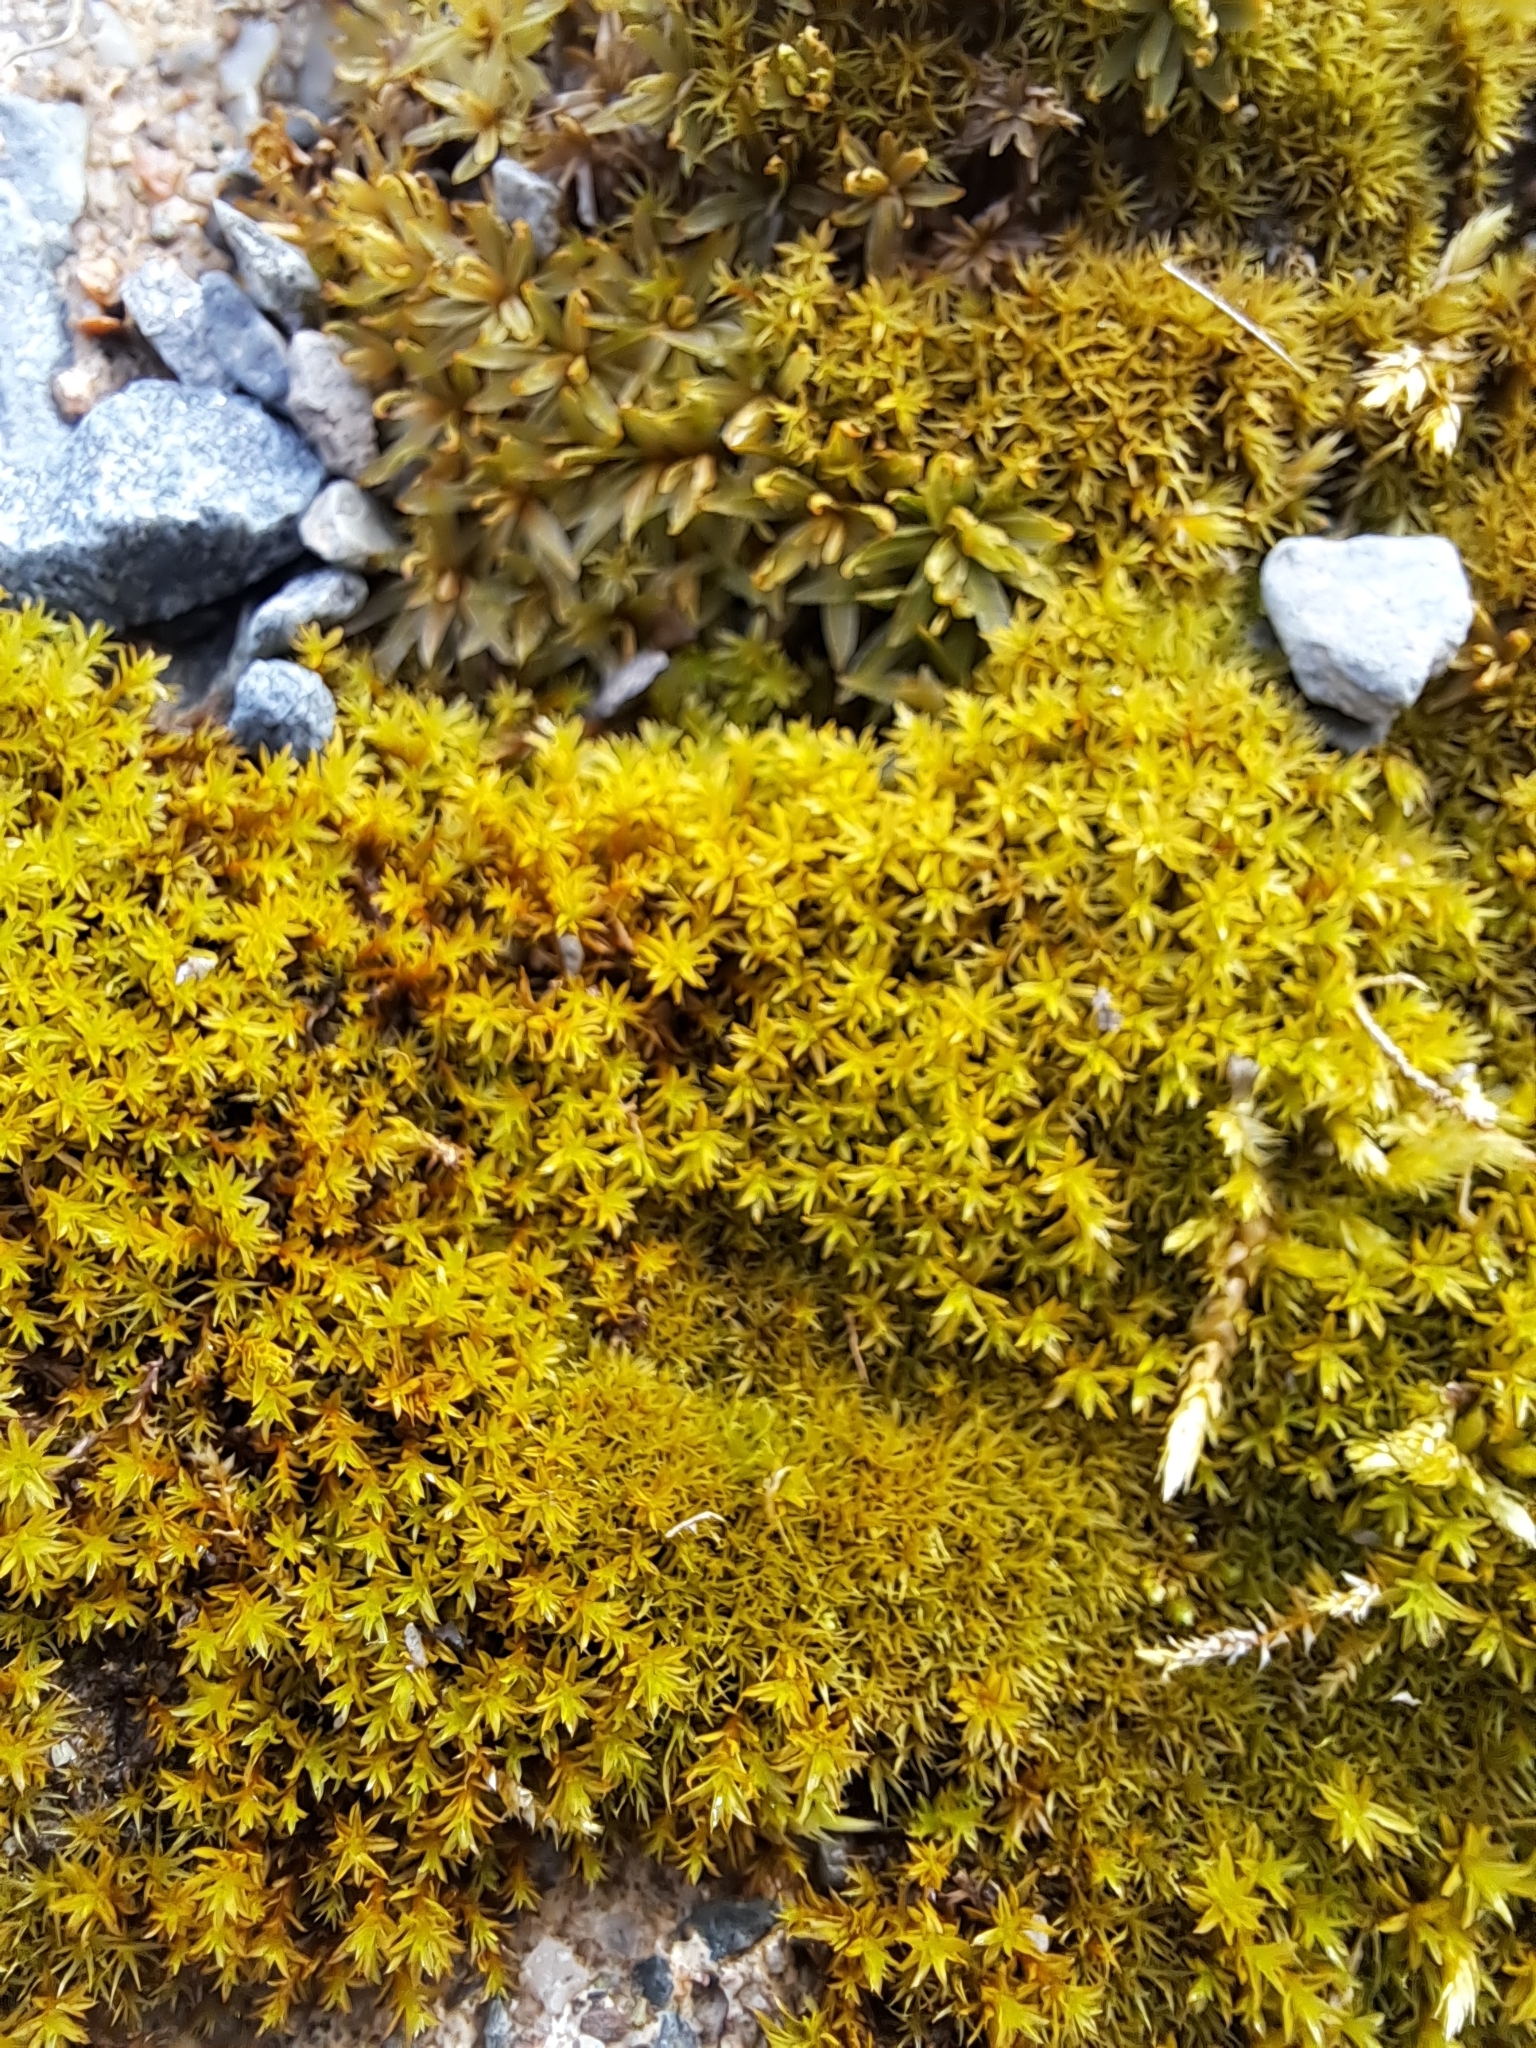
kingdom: Plantae
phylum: Bryophyta
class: Bryopsida
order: Pottiales
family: Pottiaceae
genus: Barbula
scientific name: Barbula unguiculata
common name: Prickly beard moss
